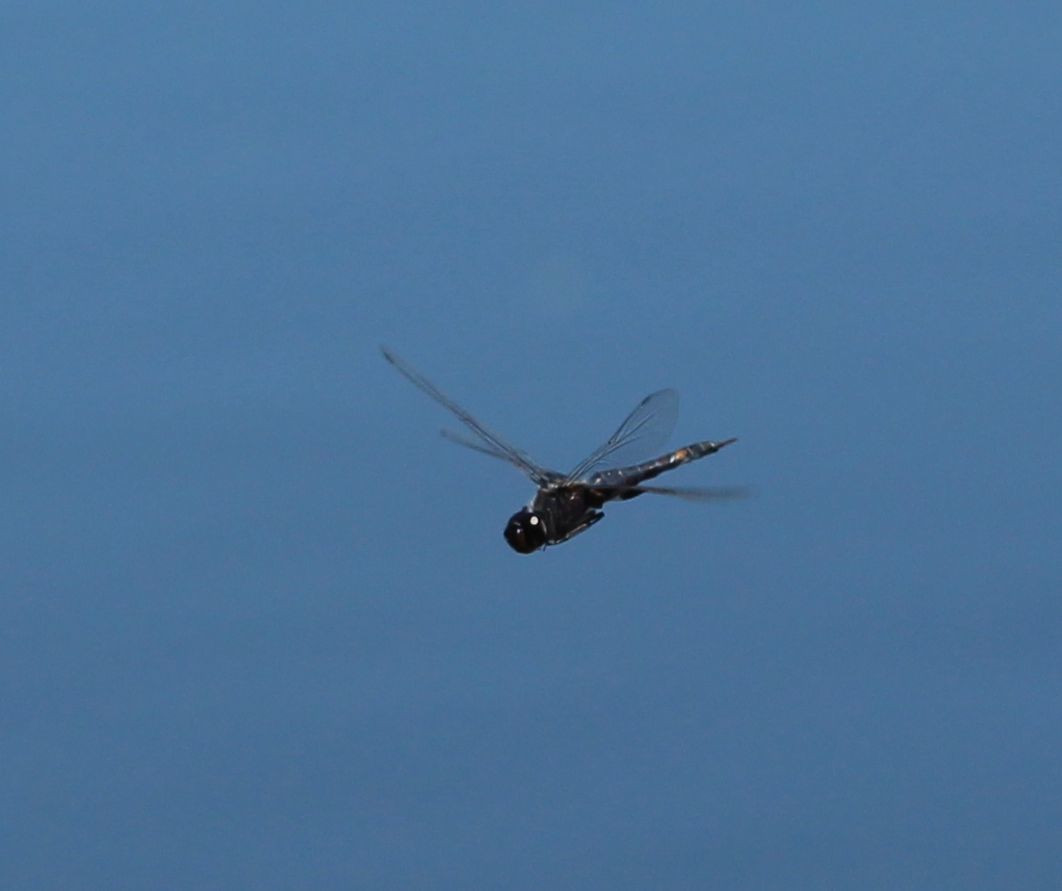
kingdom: Animalia
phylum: Arthropoda
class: Insecta
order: Odonata
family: Libellulidae
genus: Tramea
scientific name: Tramea lacerata
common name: Black saddlebags
